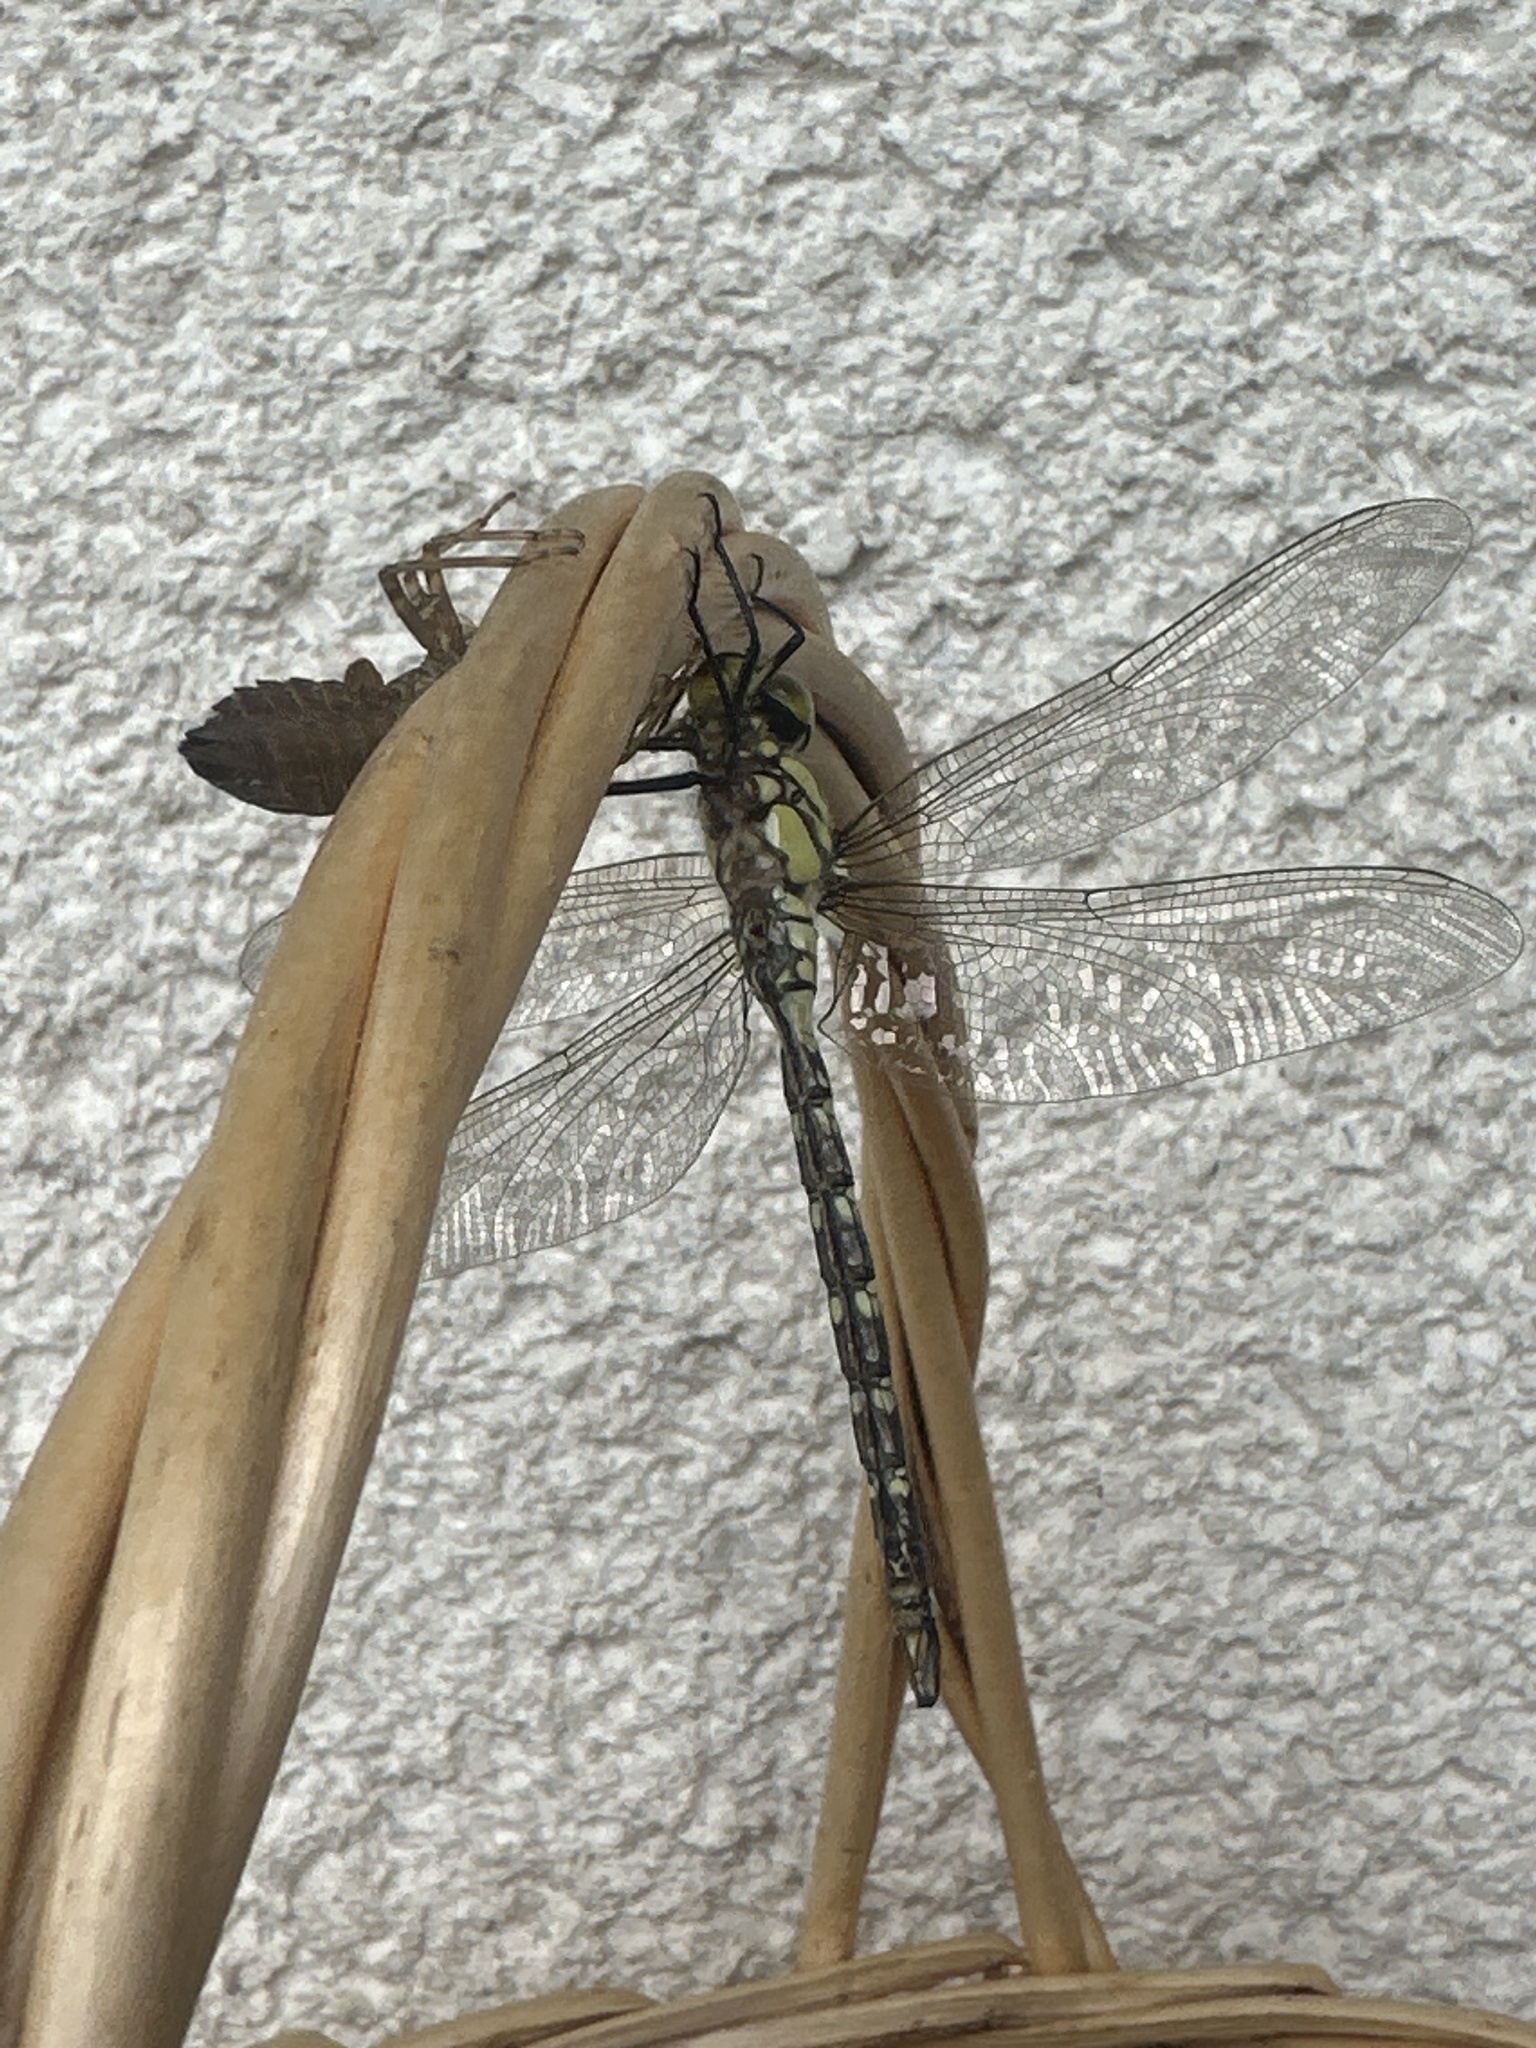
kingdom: Animalia
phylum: Arthropoda
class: Insecta
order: Odonata
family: Aeshnidae
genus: Aeshna
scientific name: Aeshna cyanea
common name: Southern hawker
